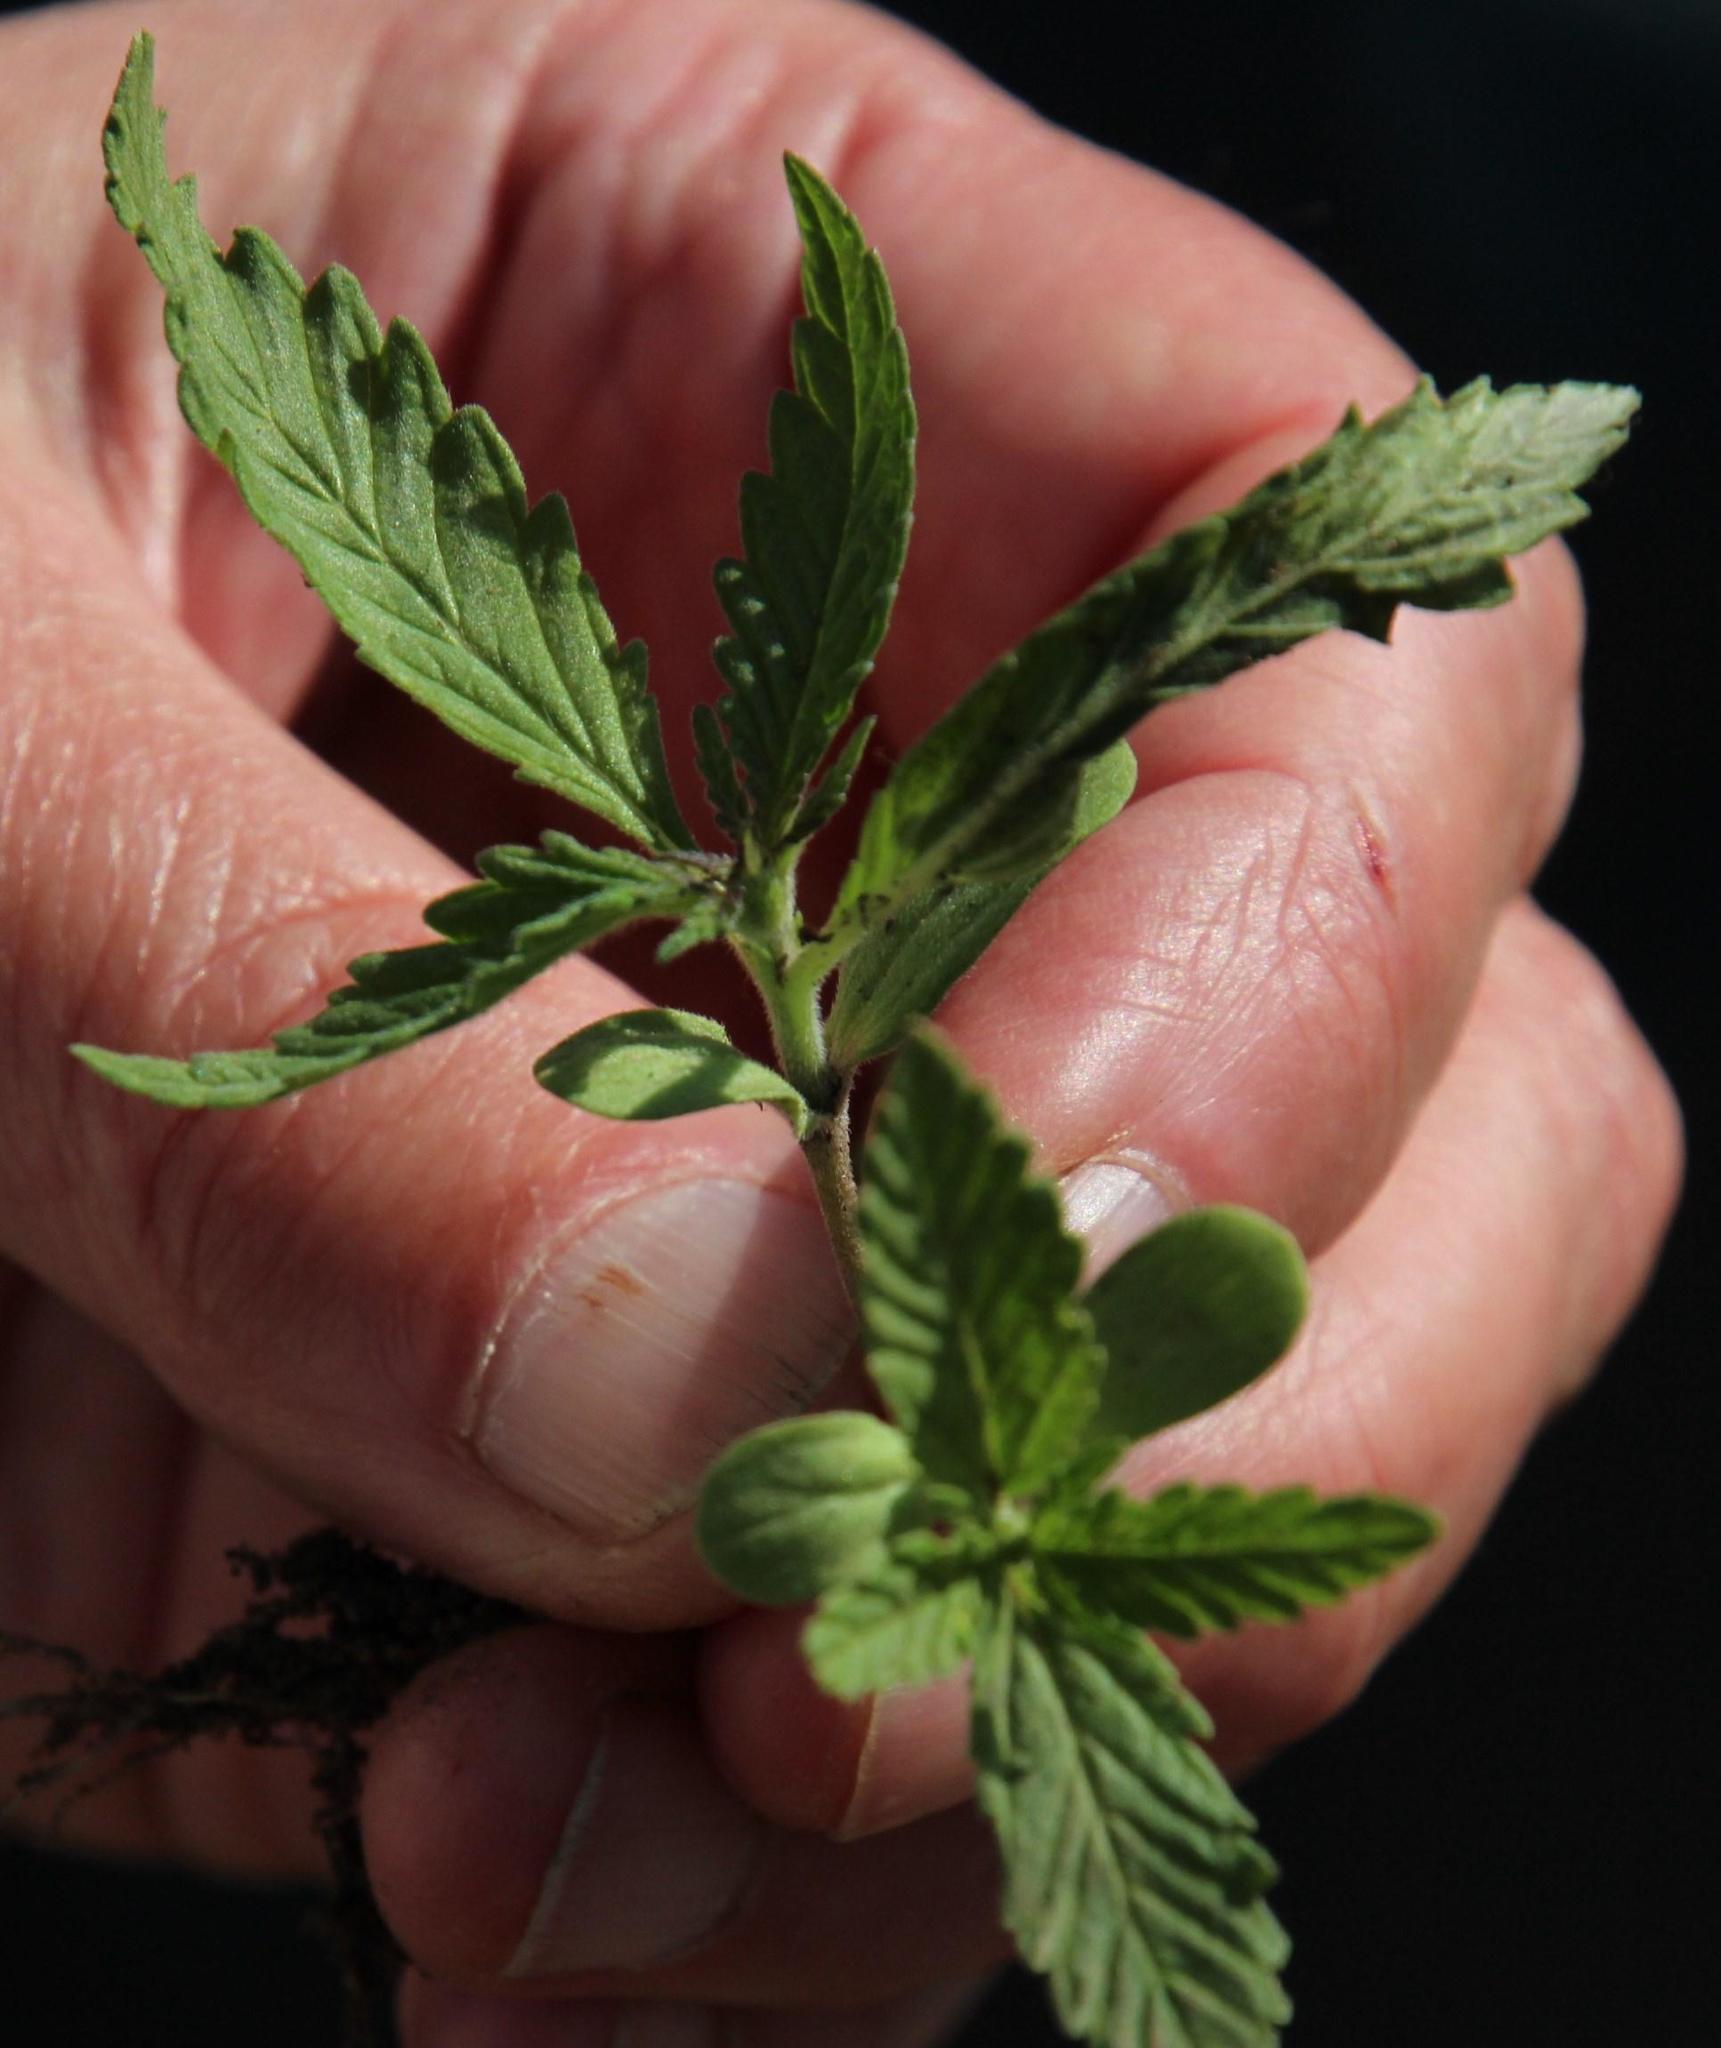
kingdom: Plantae
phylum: Tracheophyta
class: Magnoliopsida
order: Lamiales
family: Verbenaceae
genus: Verbena
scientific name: Verbena bonariensis
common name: Purpletop vervain
